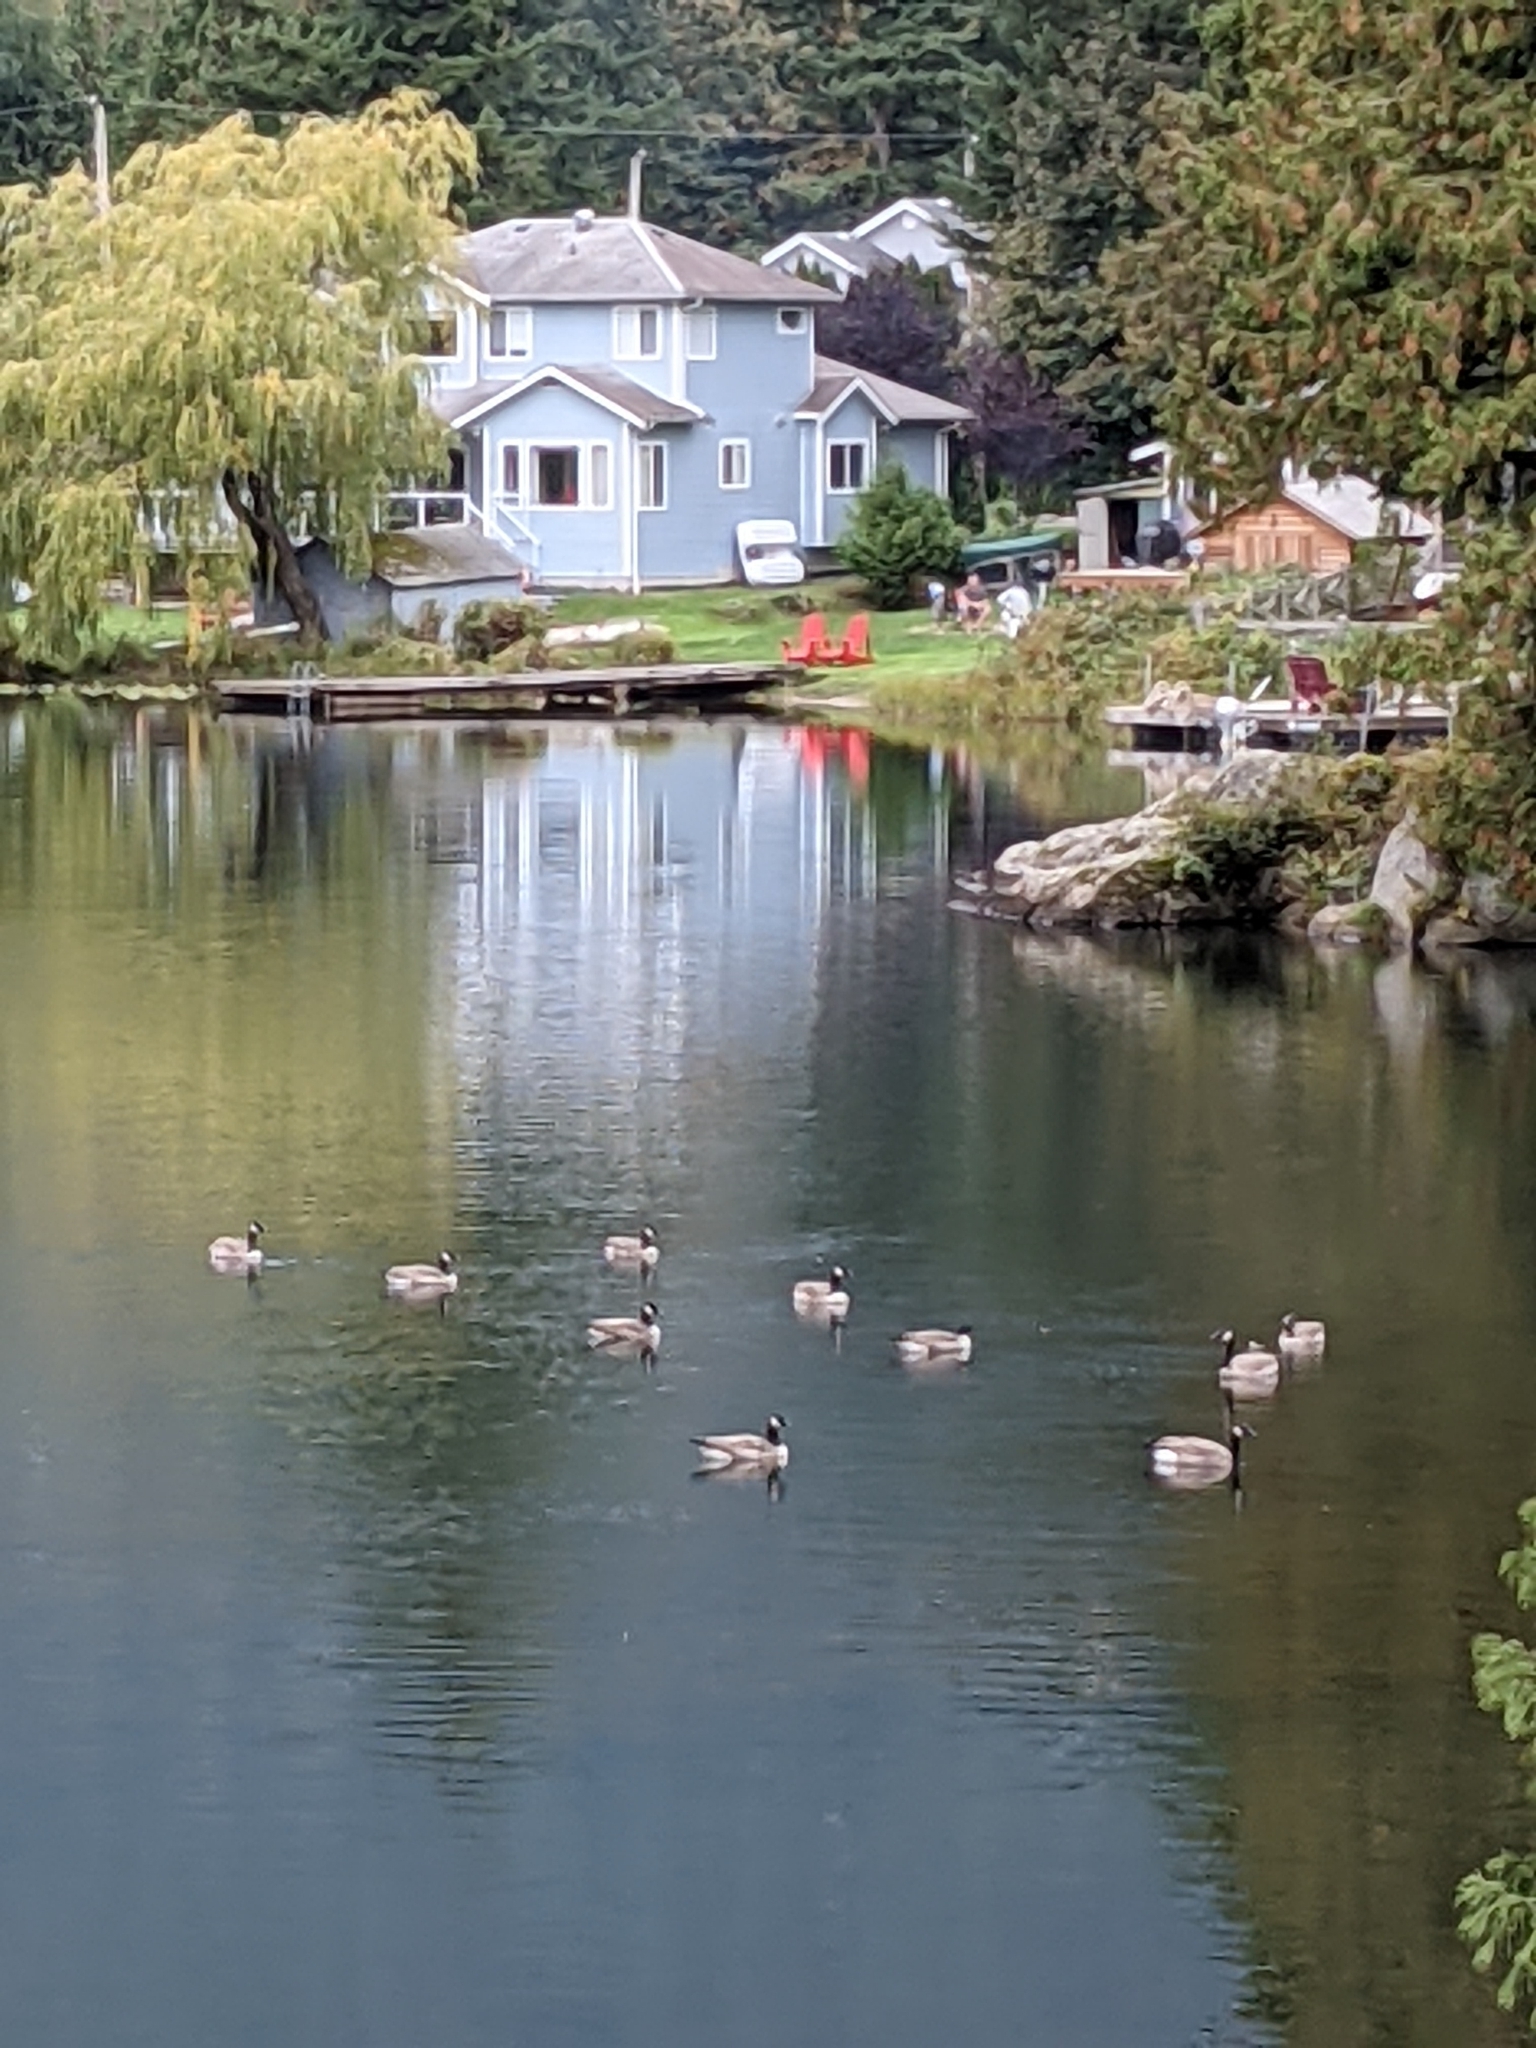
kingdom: Animalia
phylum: Chordata
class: Aves
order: Anseriformes
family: Anatidae
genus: Branta
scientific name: Branta canadensis
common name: Canada goose
